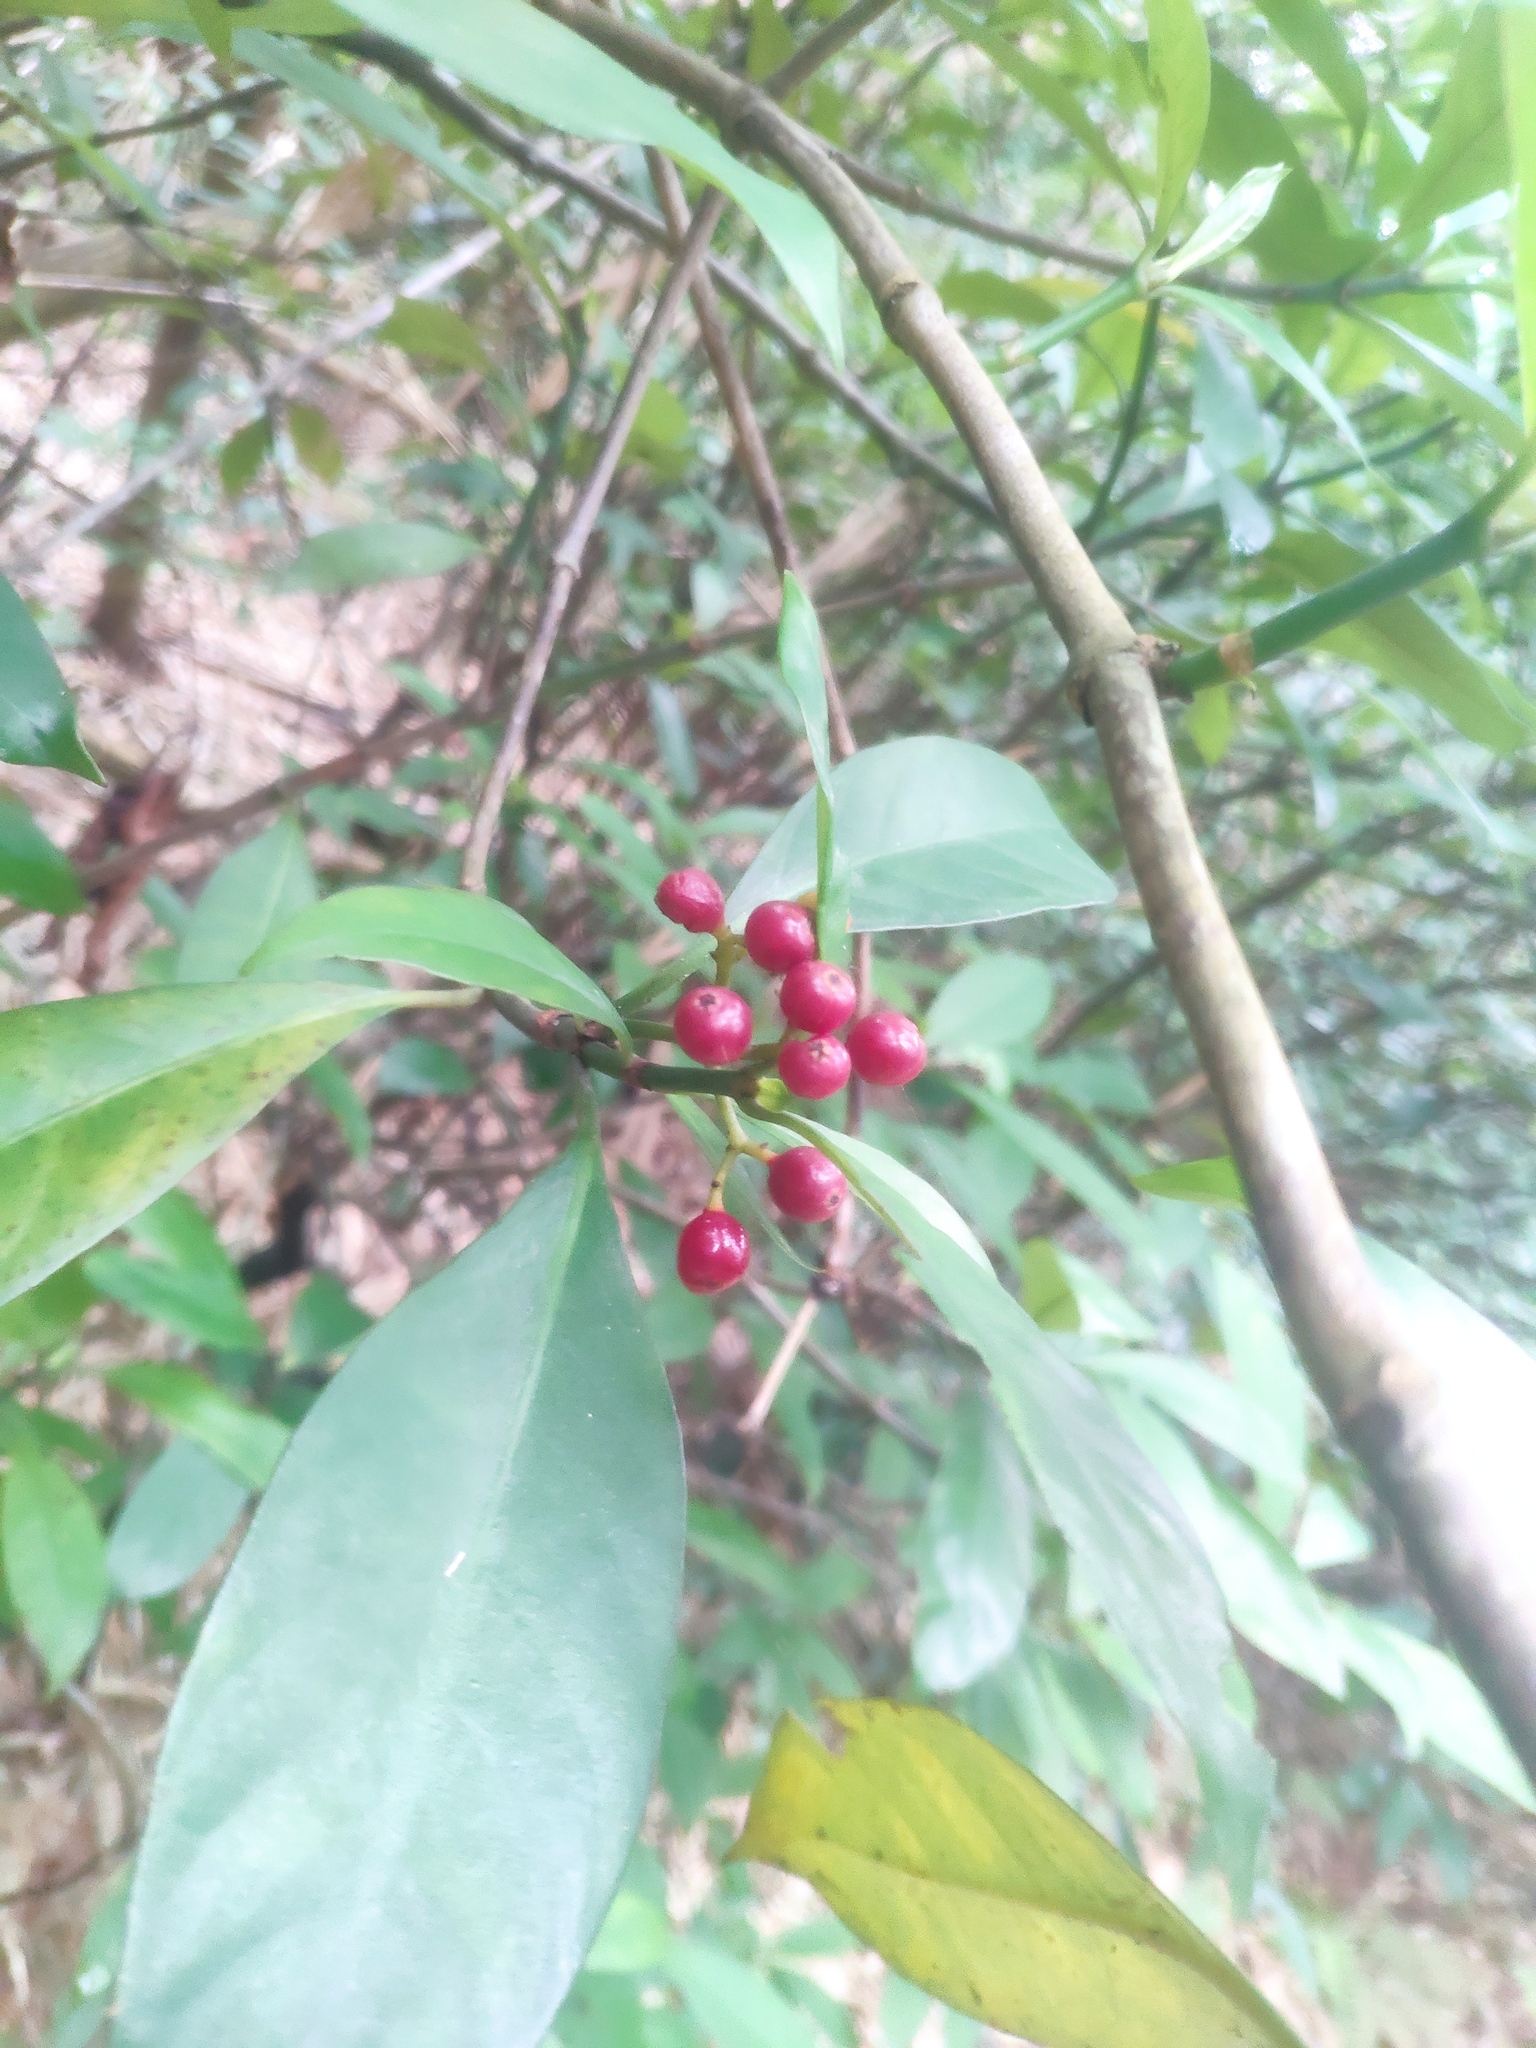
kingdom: Plantae
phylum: Tracheophyta
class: Magnoliopsida
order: Gentianales
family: Rubiaceae
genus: Psychotria
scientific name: Psychotria asiatica
